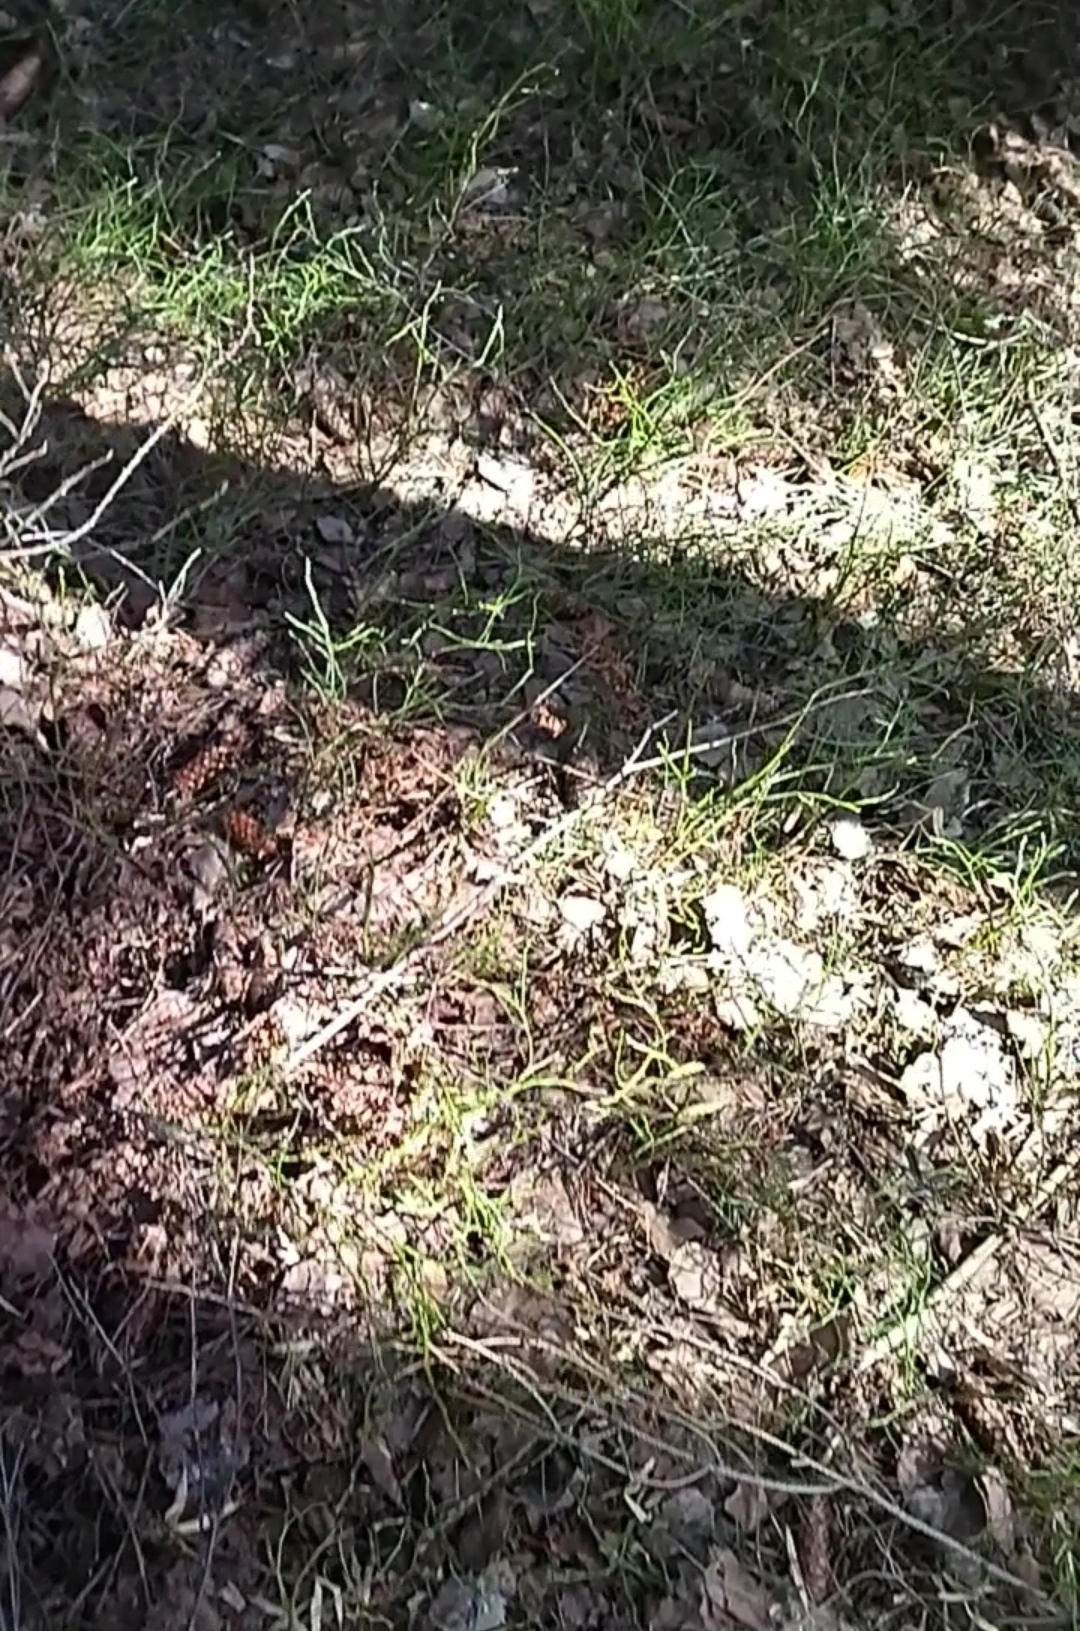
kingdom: Plantae
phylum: Tracheophyta
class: Magnoliopsida
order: Ericales
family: Ericaceae
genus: Vaccinium
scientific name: Vaccinium myrtillus
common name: Bilberry
